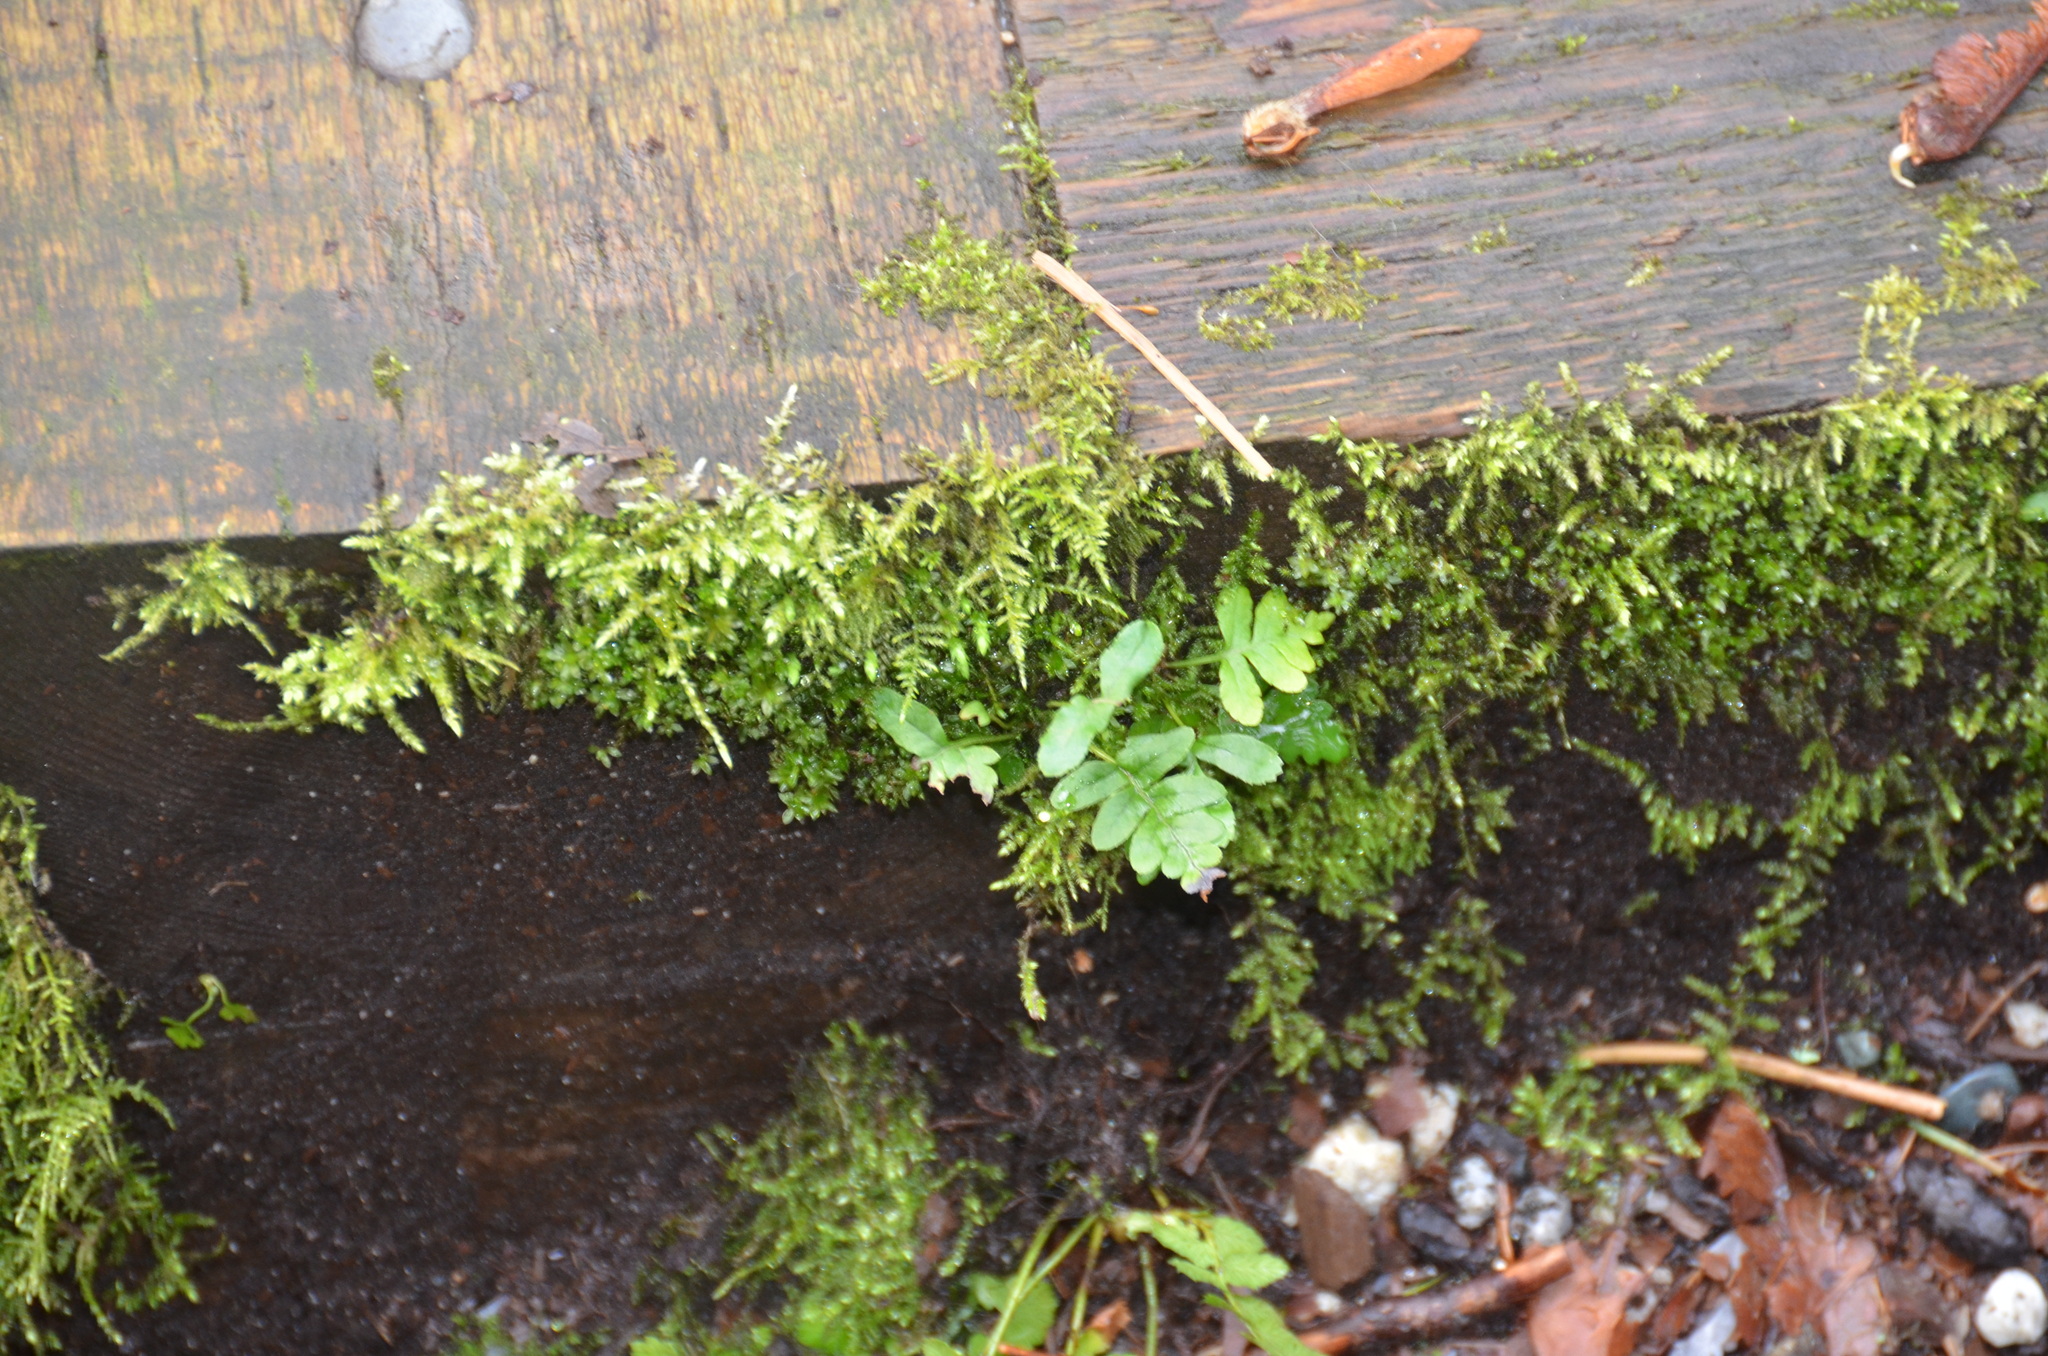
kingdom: Plantae
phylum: Tracheophyta
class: Polypodiopsida
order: Polypodiales
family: Polypodiaceae
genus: Polypodium
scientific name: Polypodium glycyrrhiza
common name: Licorice fern
